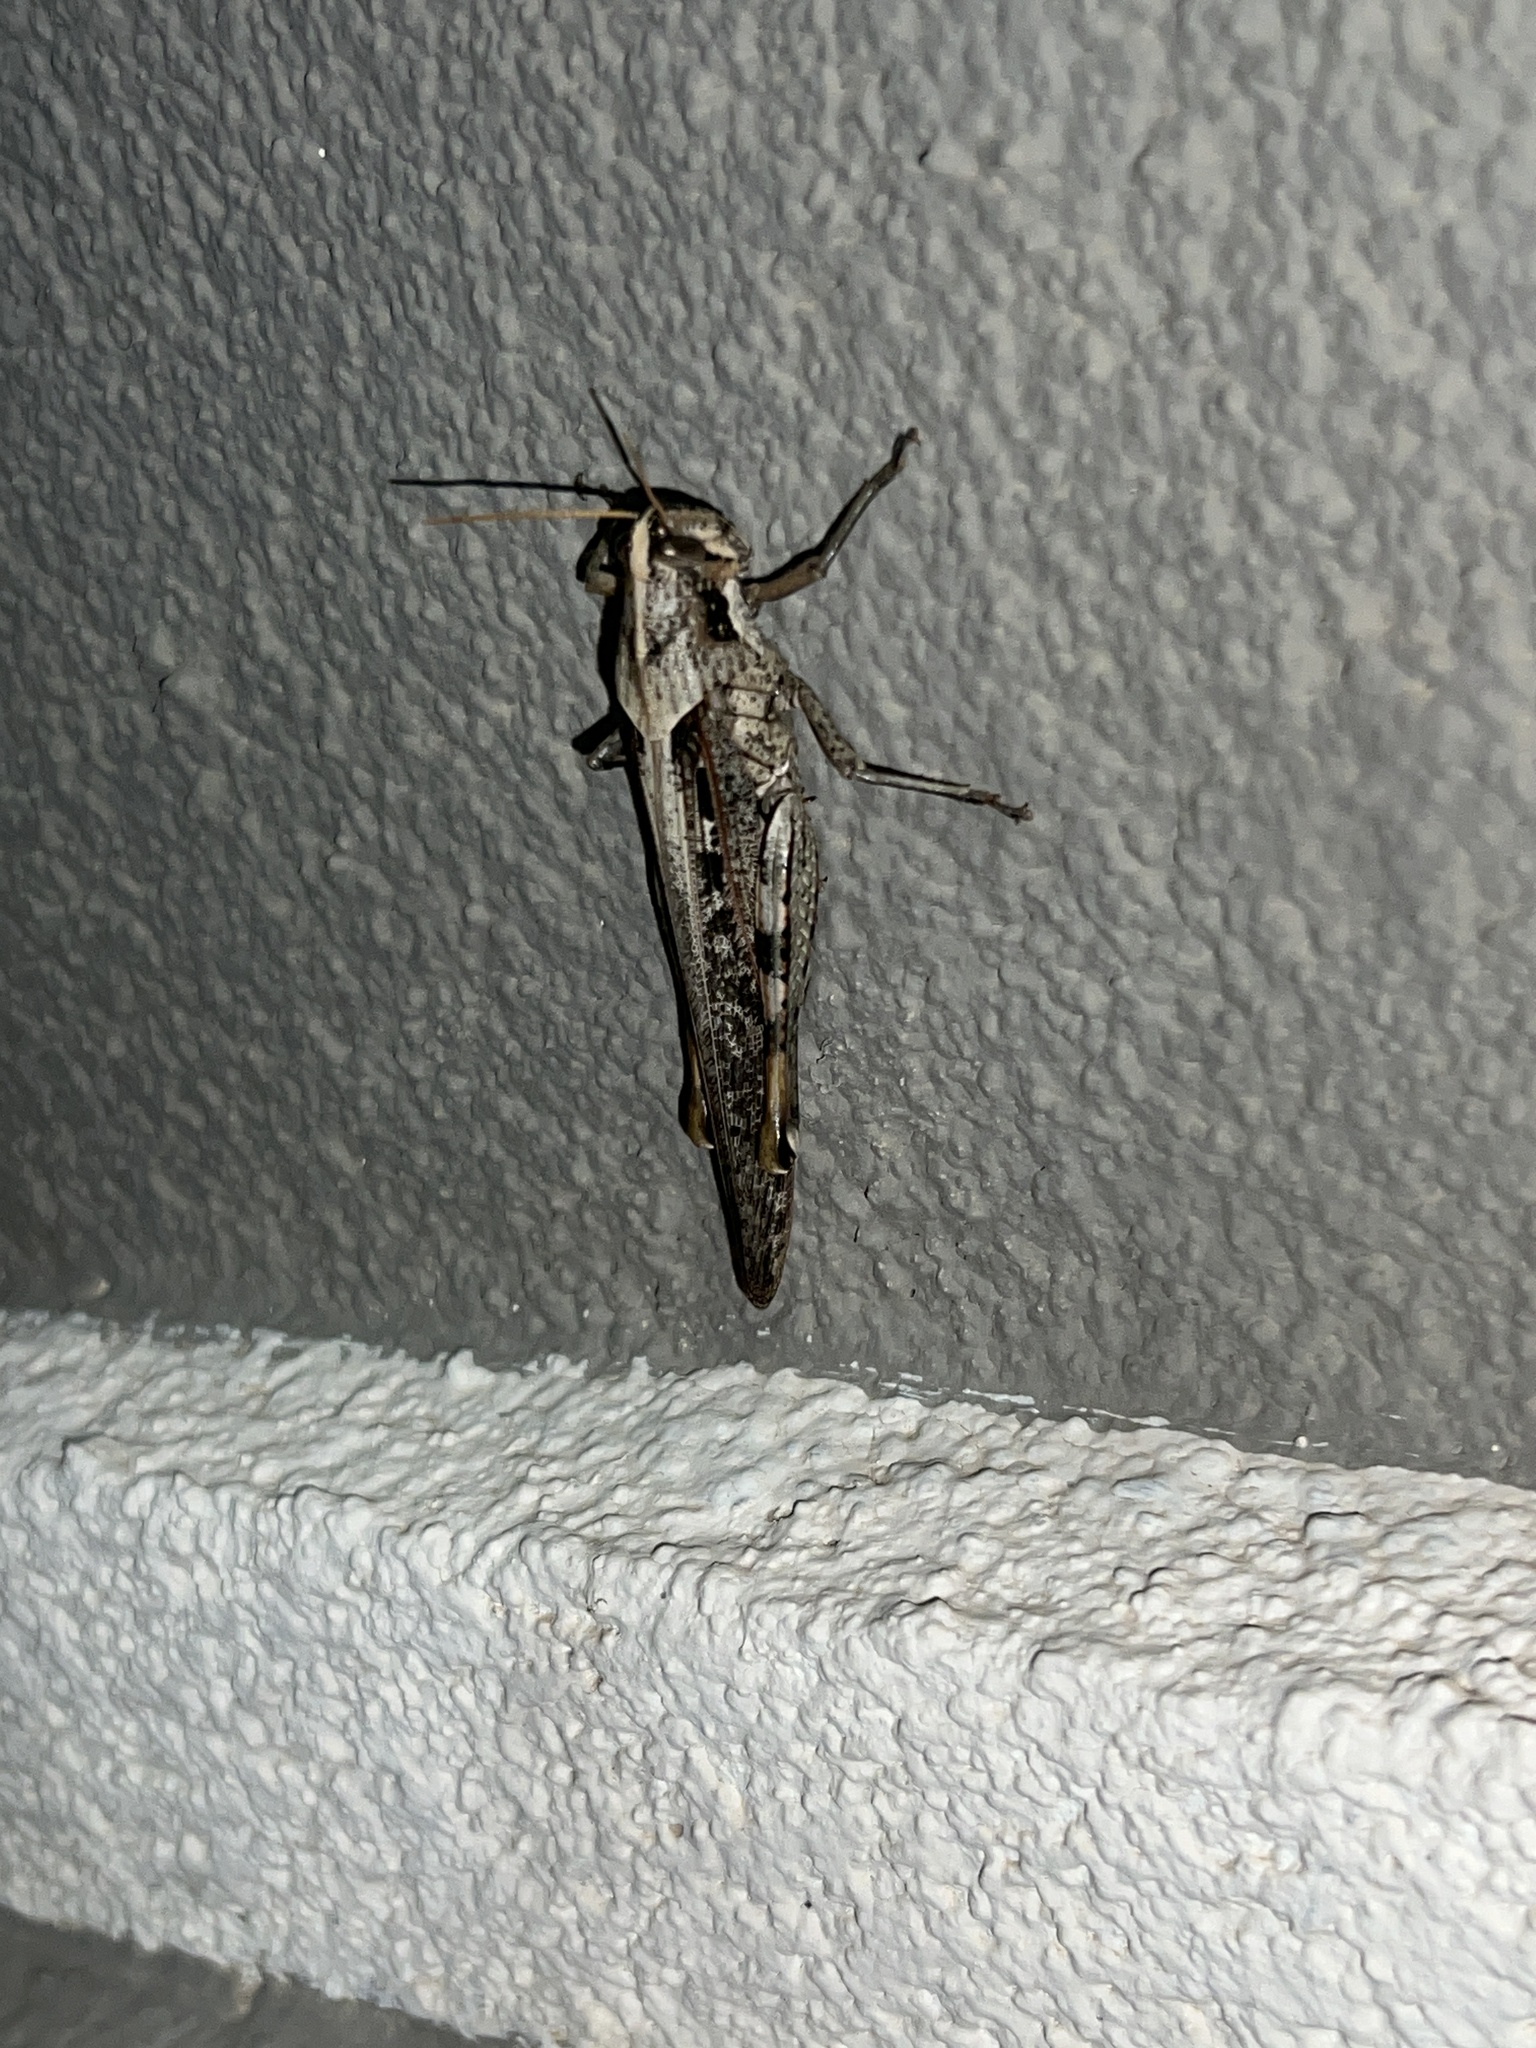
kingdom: Animalia
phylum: Arthropoda
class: Insecta
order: Orthoptera
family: Acrididae
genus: Schistocerca
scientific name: Schistocerca nitens
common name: Vagrant grasshopper
